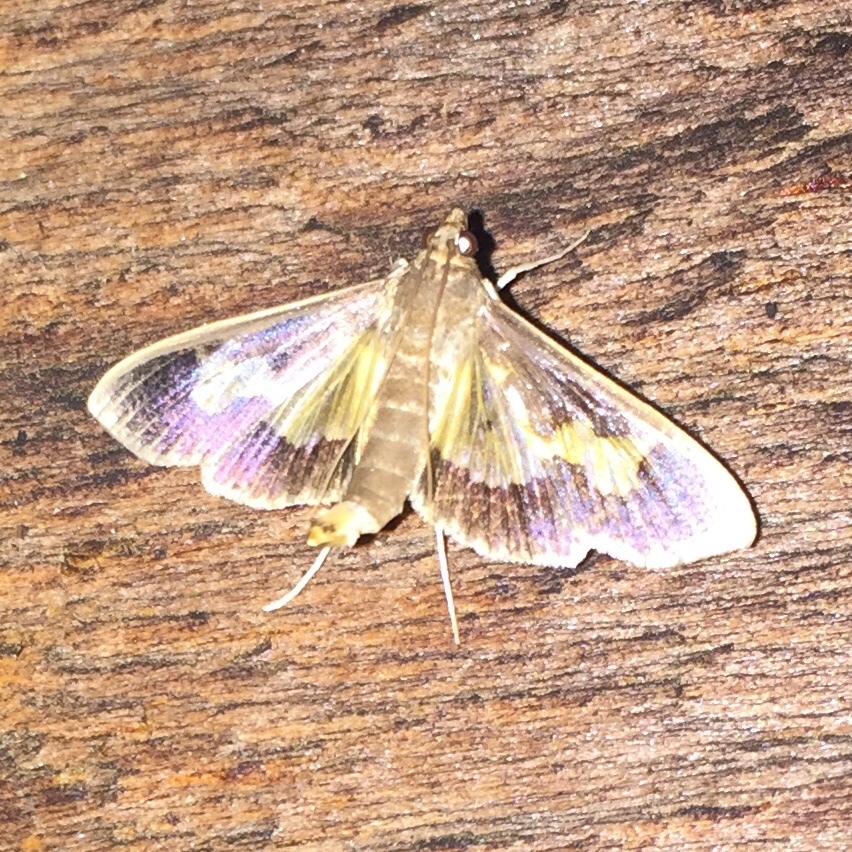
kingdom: Animalia
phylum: Arthropoda
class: Insecta
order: Lepidoptera
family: Crambidae
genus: Cryptographis
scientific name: Cryptographis nitidalis
